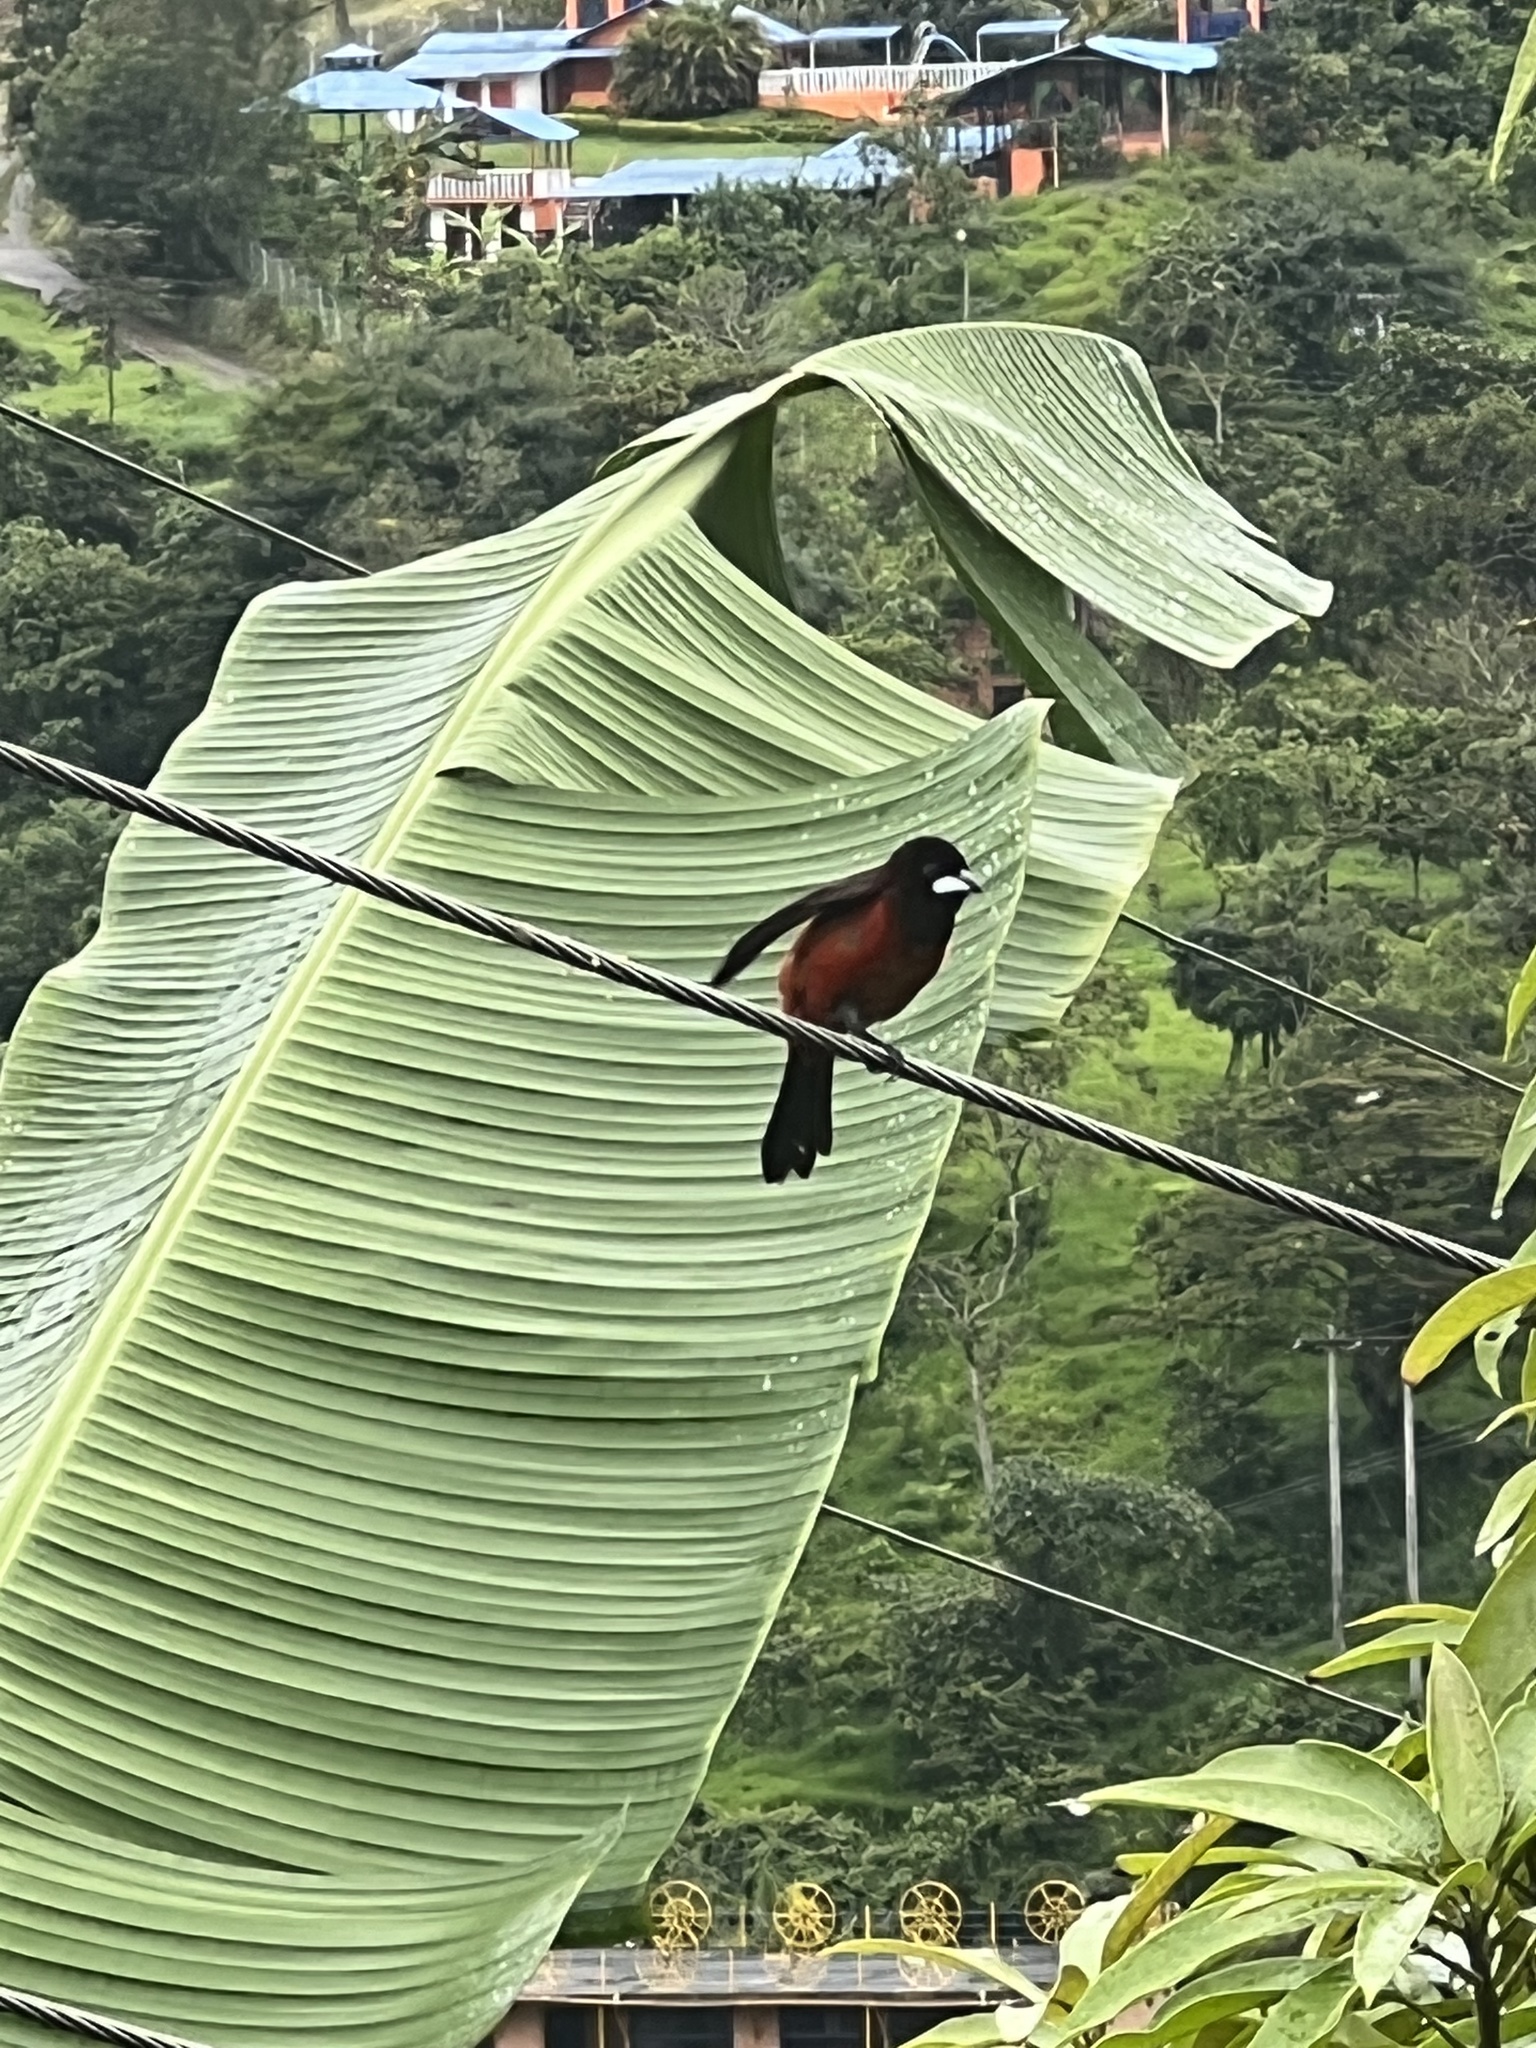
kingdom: Animalia
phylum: Chordata
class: Aves
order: Passeriformes
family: Thraupidae
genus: Ramphocelus
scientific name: Ramphocelus dimidiatus
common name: Crimson-backed tanager
